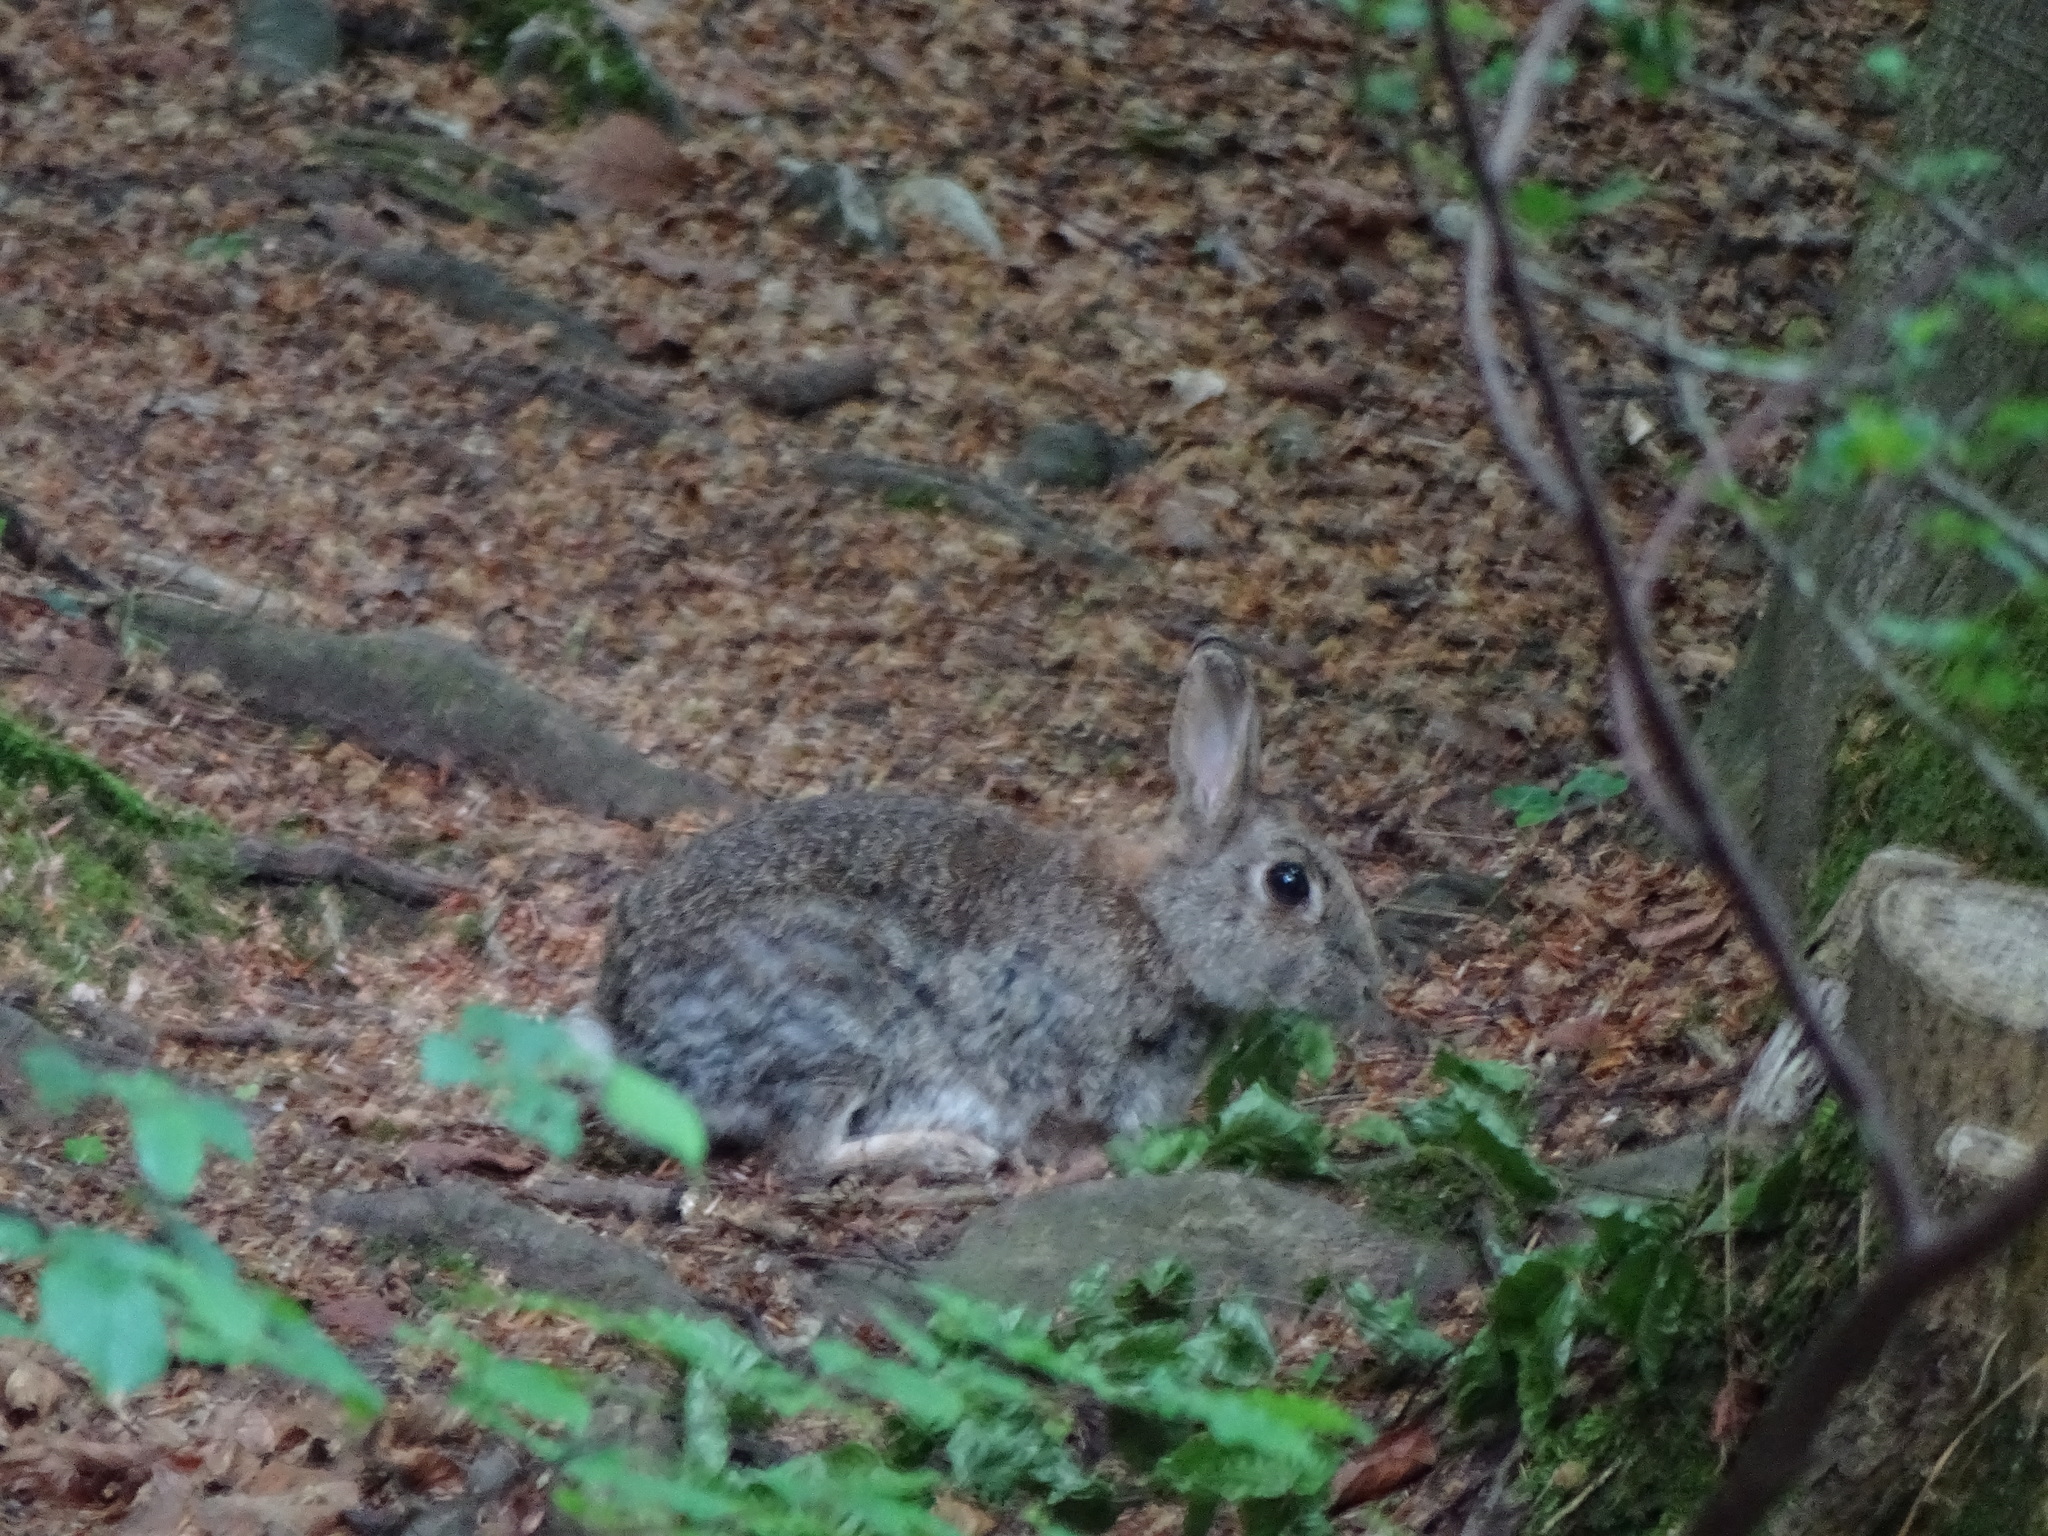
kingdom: Animalia
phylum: Chordata
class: Mammalia
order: Lagomorpha
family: Leporidae
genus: Oryctolagus
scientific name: Oryctolagus cuniculus
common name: European rabbit
